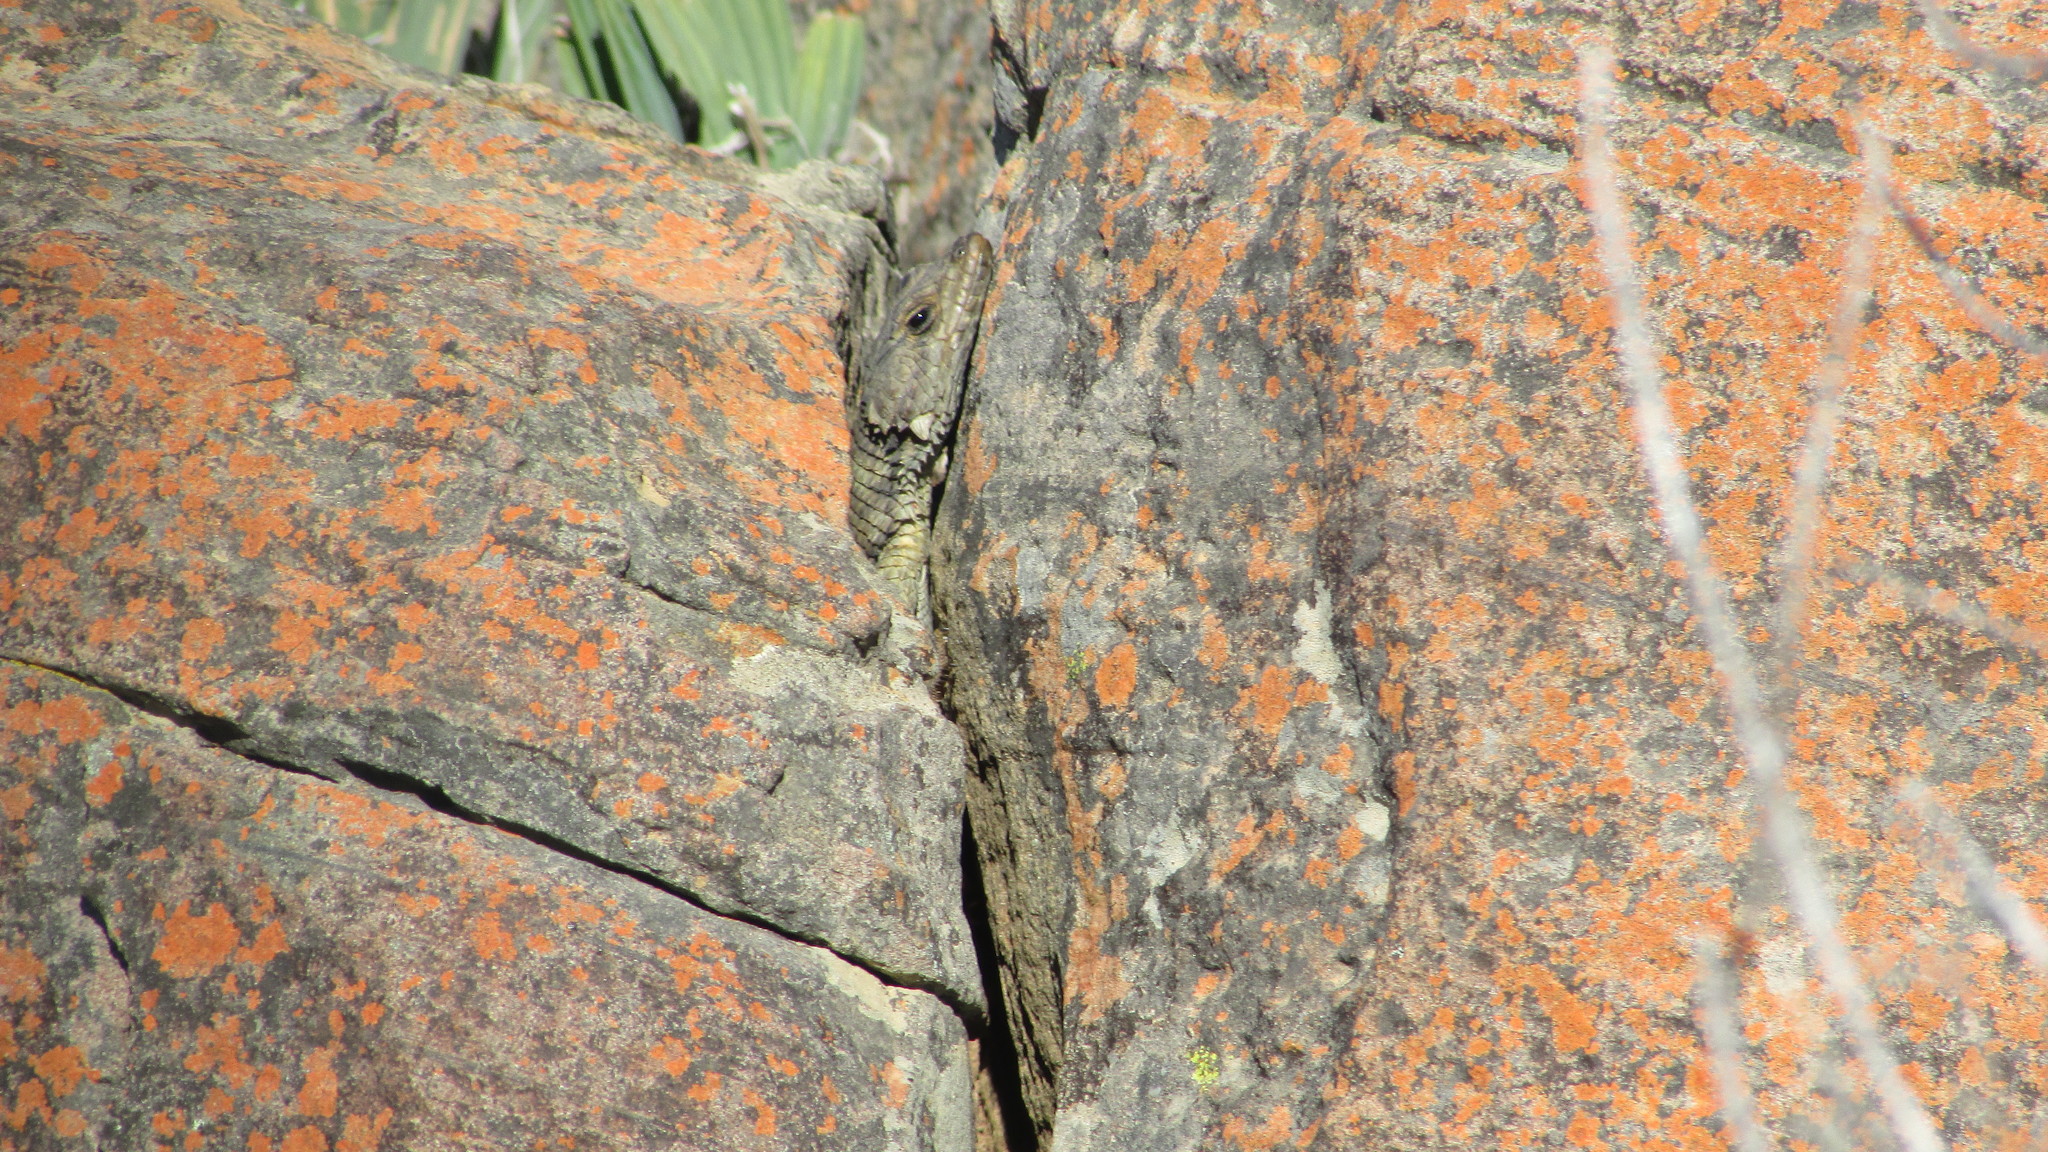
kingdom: Animalia
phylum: Chordata
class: Squamata
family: Cordylidae
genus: Karusasaurus
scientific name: Karusasaurus polyzonus
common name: Karoo girdled lizard
